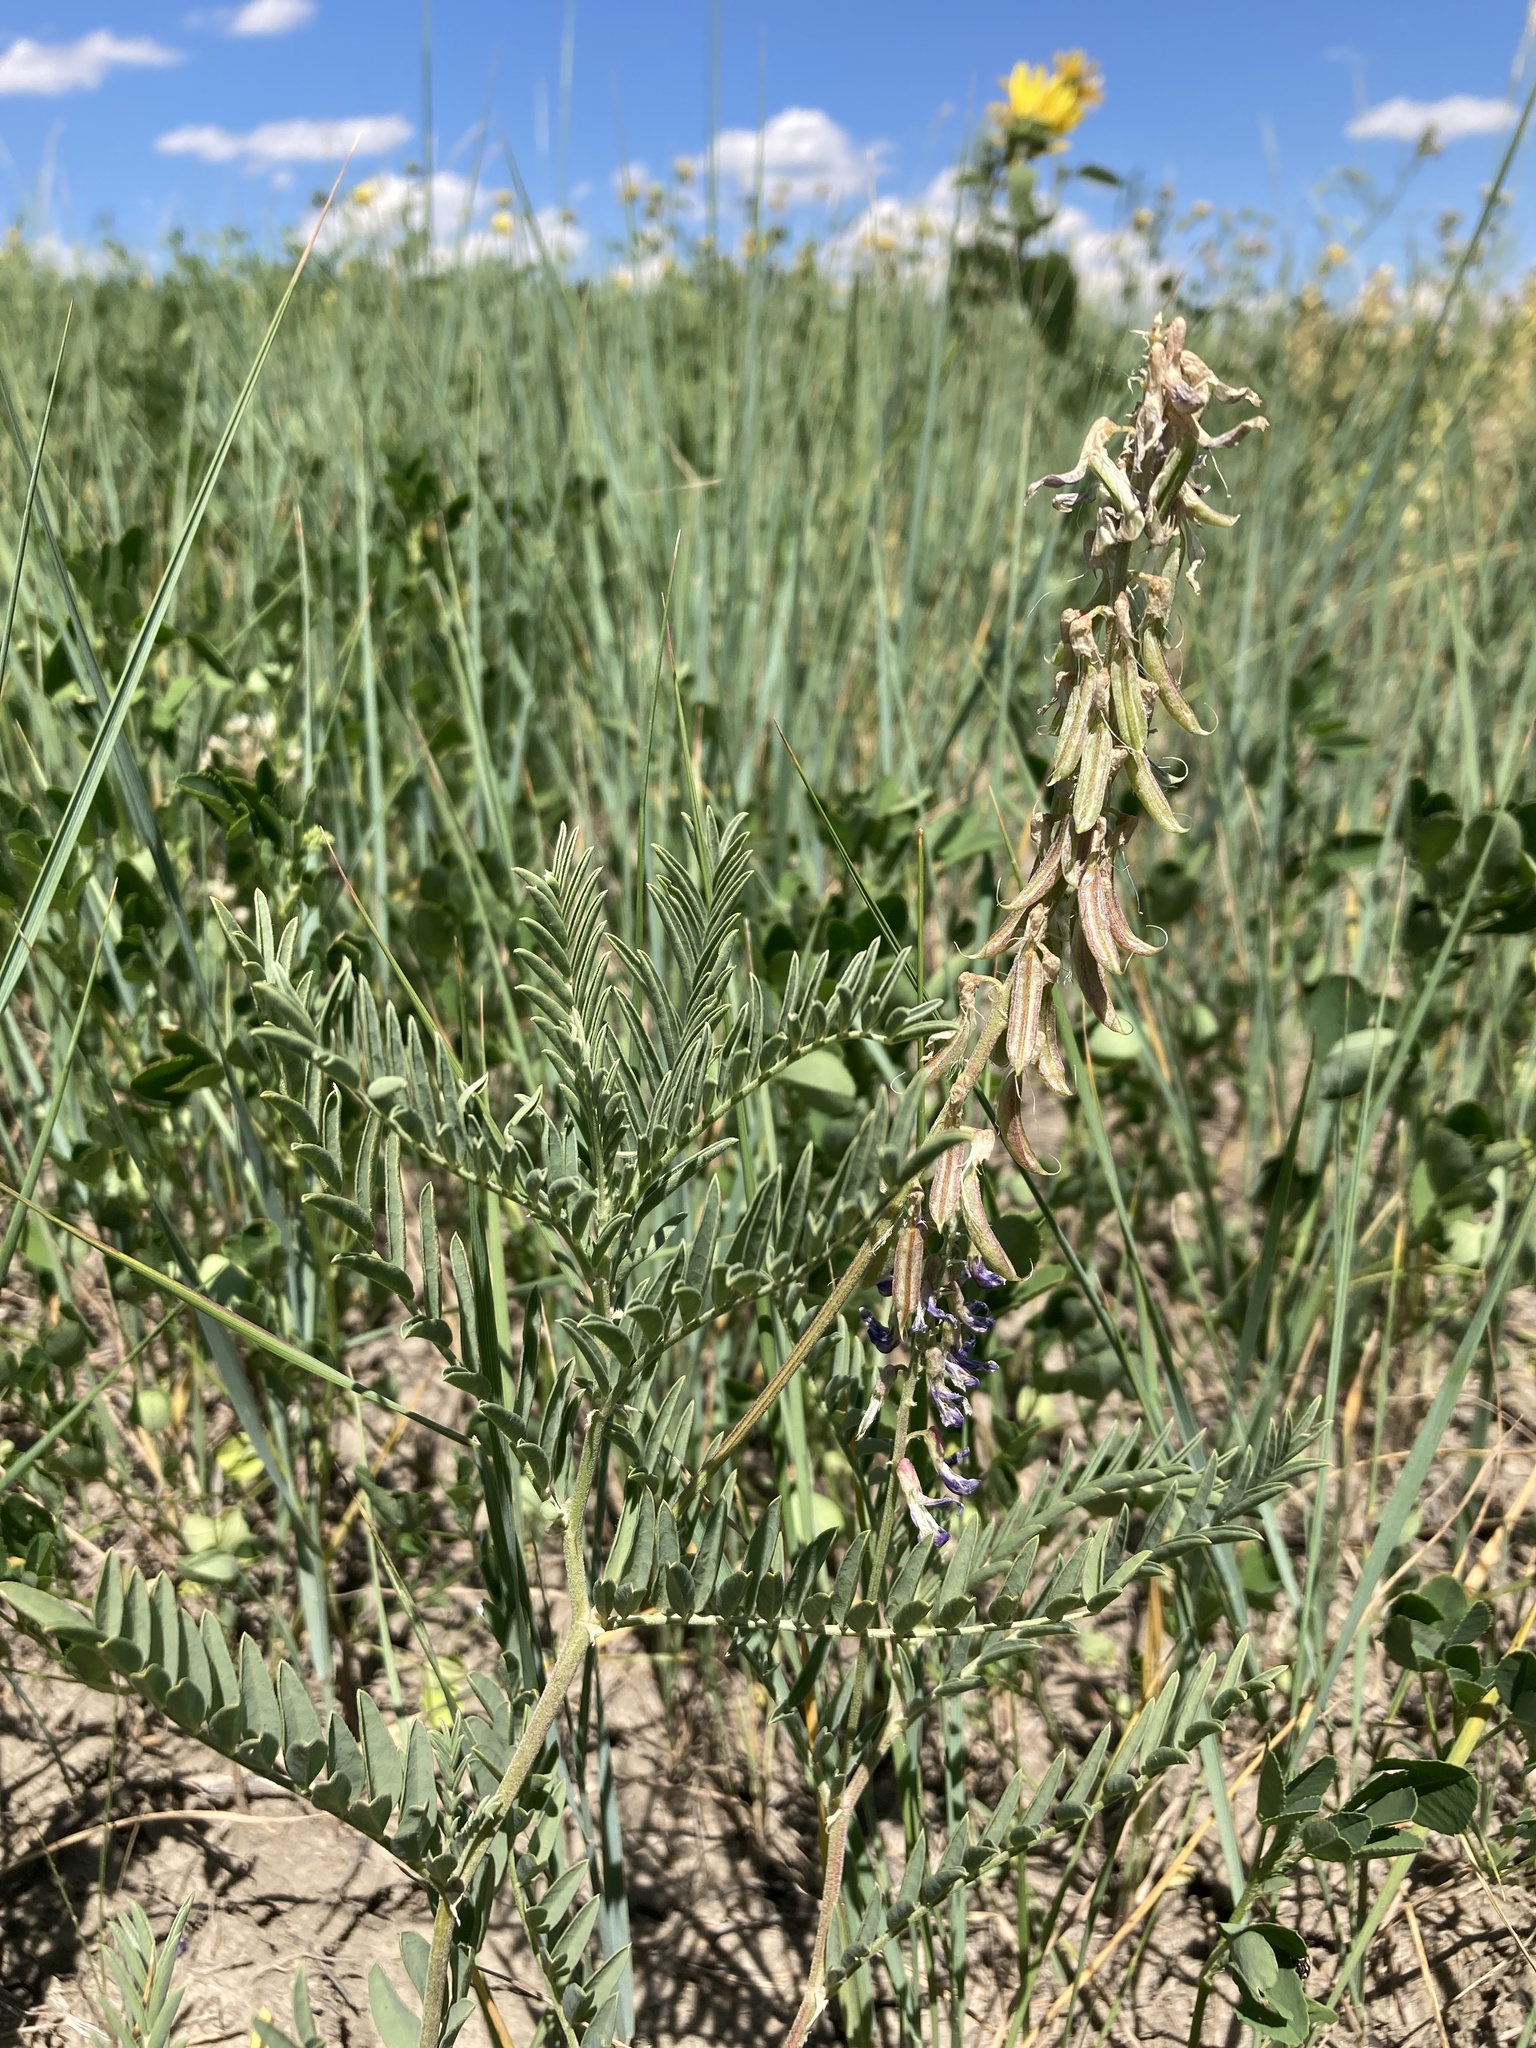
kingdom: Plantae
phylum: Tracheophyta
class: Magnoliopsida
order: Fabales
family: Fabaceae
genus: Astragalus
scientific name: Astragalus bisulcatus
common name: Two-groove milk-vetch
